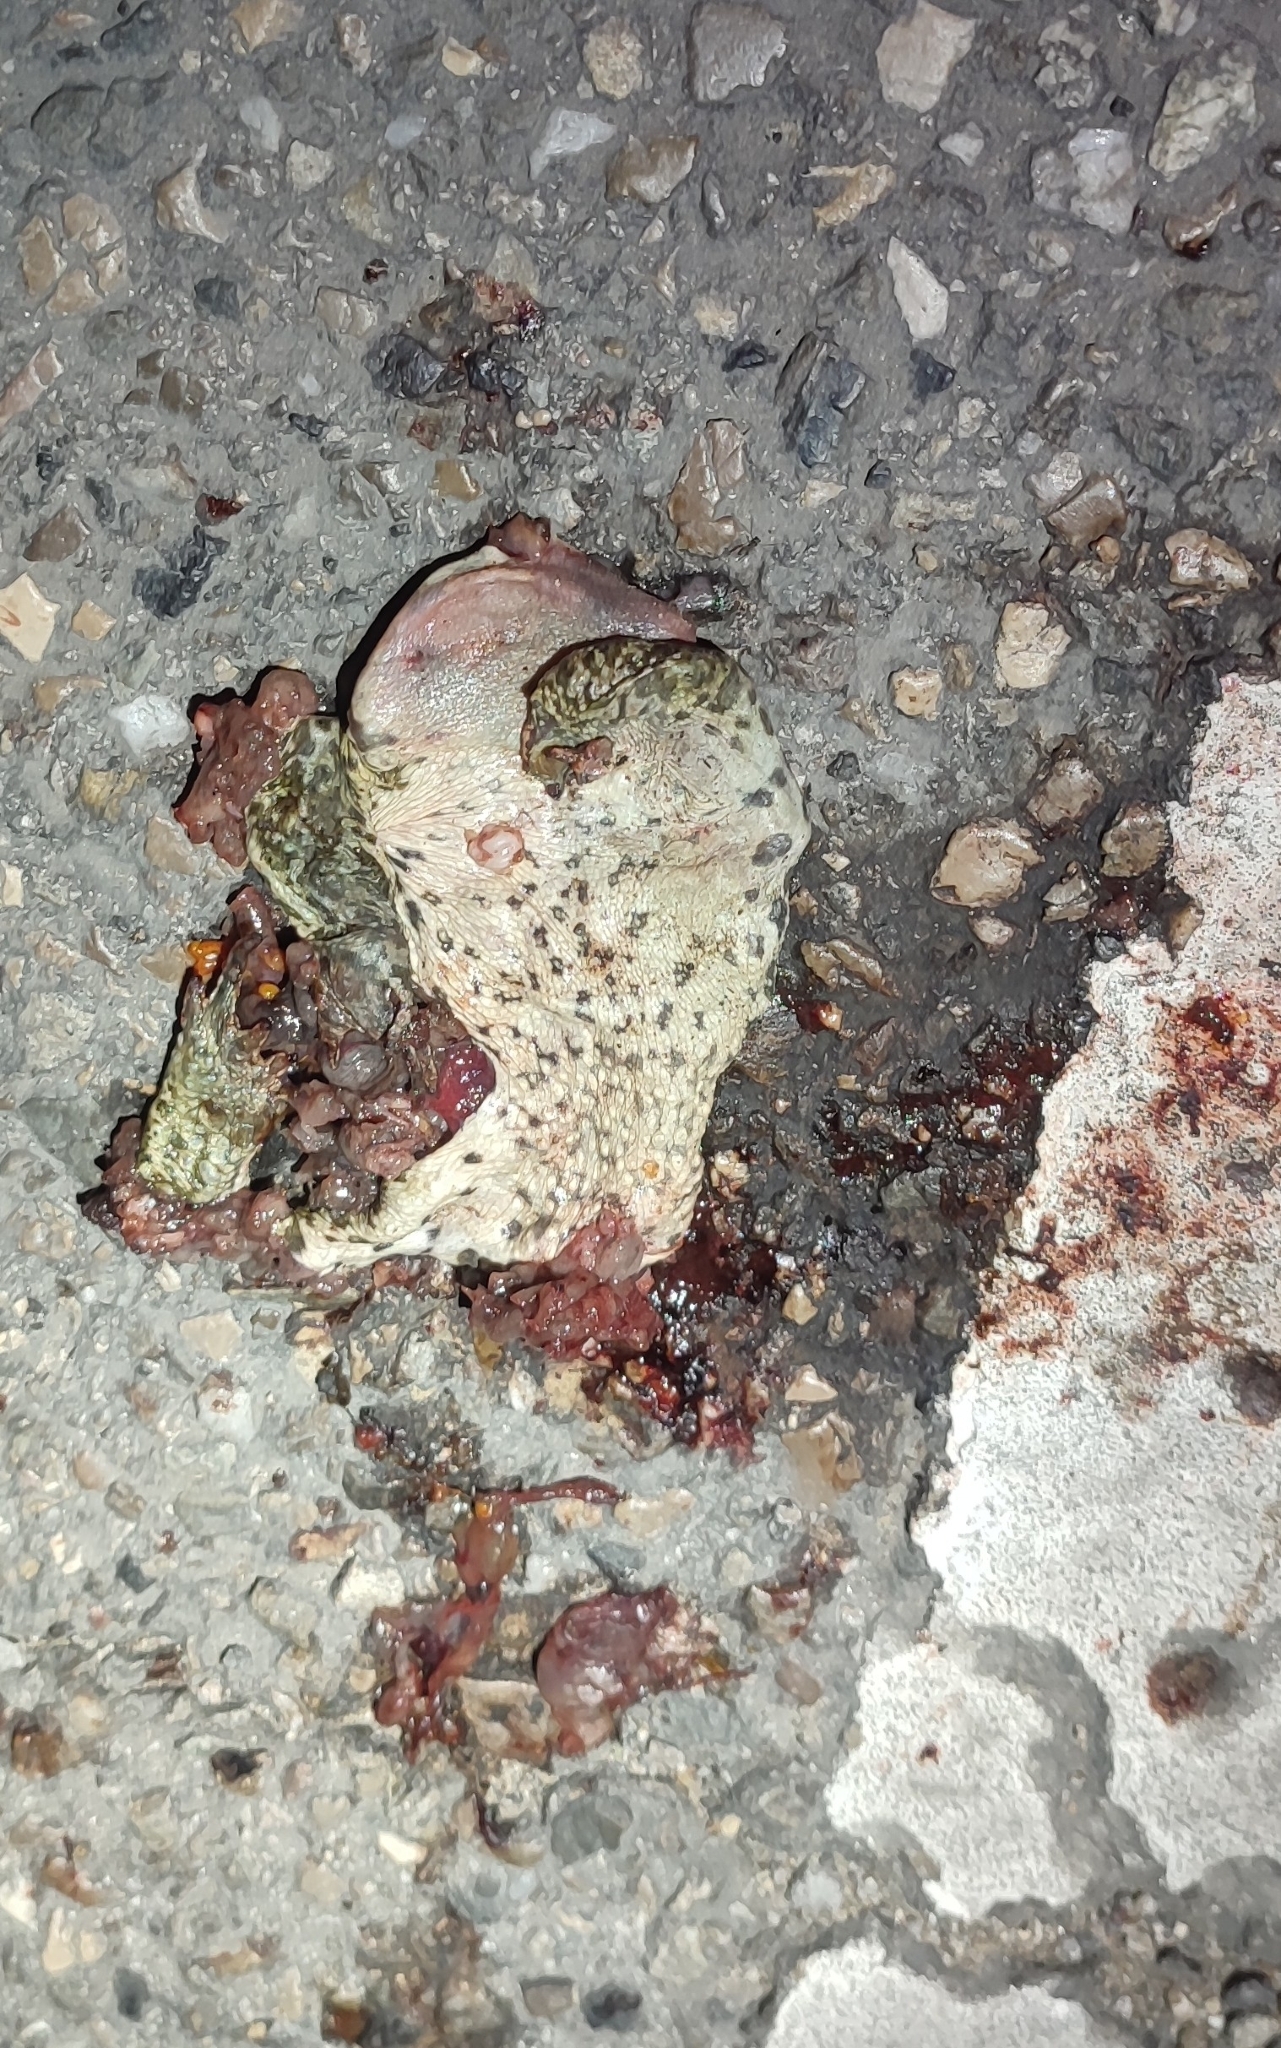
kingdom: Animalia
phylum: Chordata
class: Amphibia
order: Anura
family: Bufonidae
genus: Epidalea
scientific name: Epidalea calamita
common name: Natterjack toad
